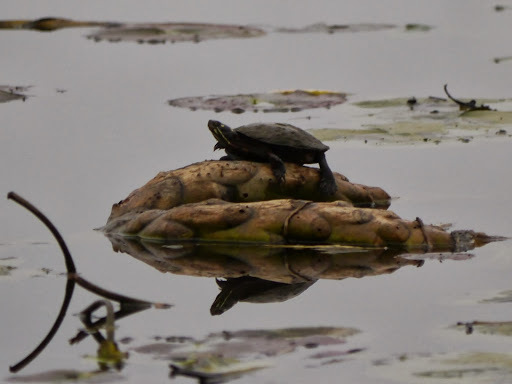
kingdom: Animalia
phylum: Chordata
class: Testudines
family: Emydidae
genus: Chrysemys
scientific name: Chrysemys picta
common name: Painted turtle
